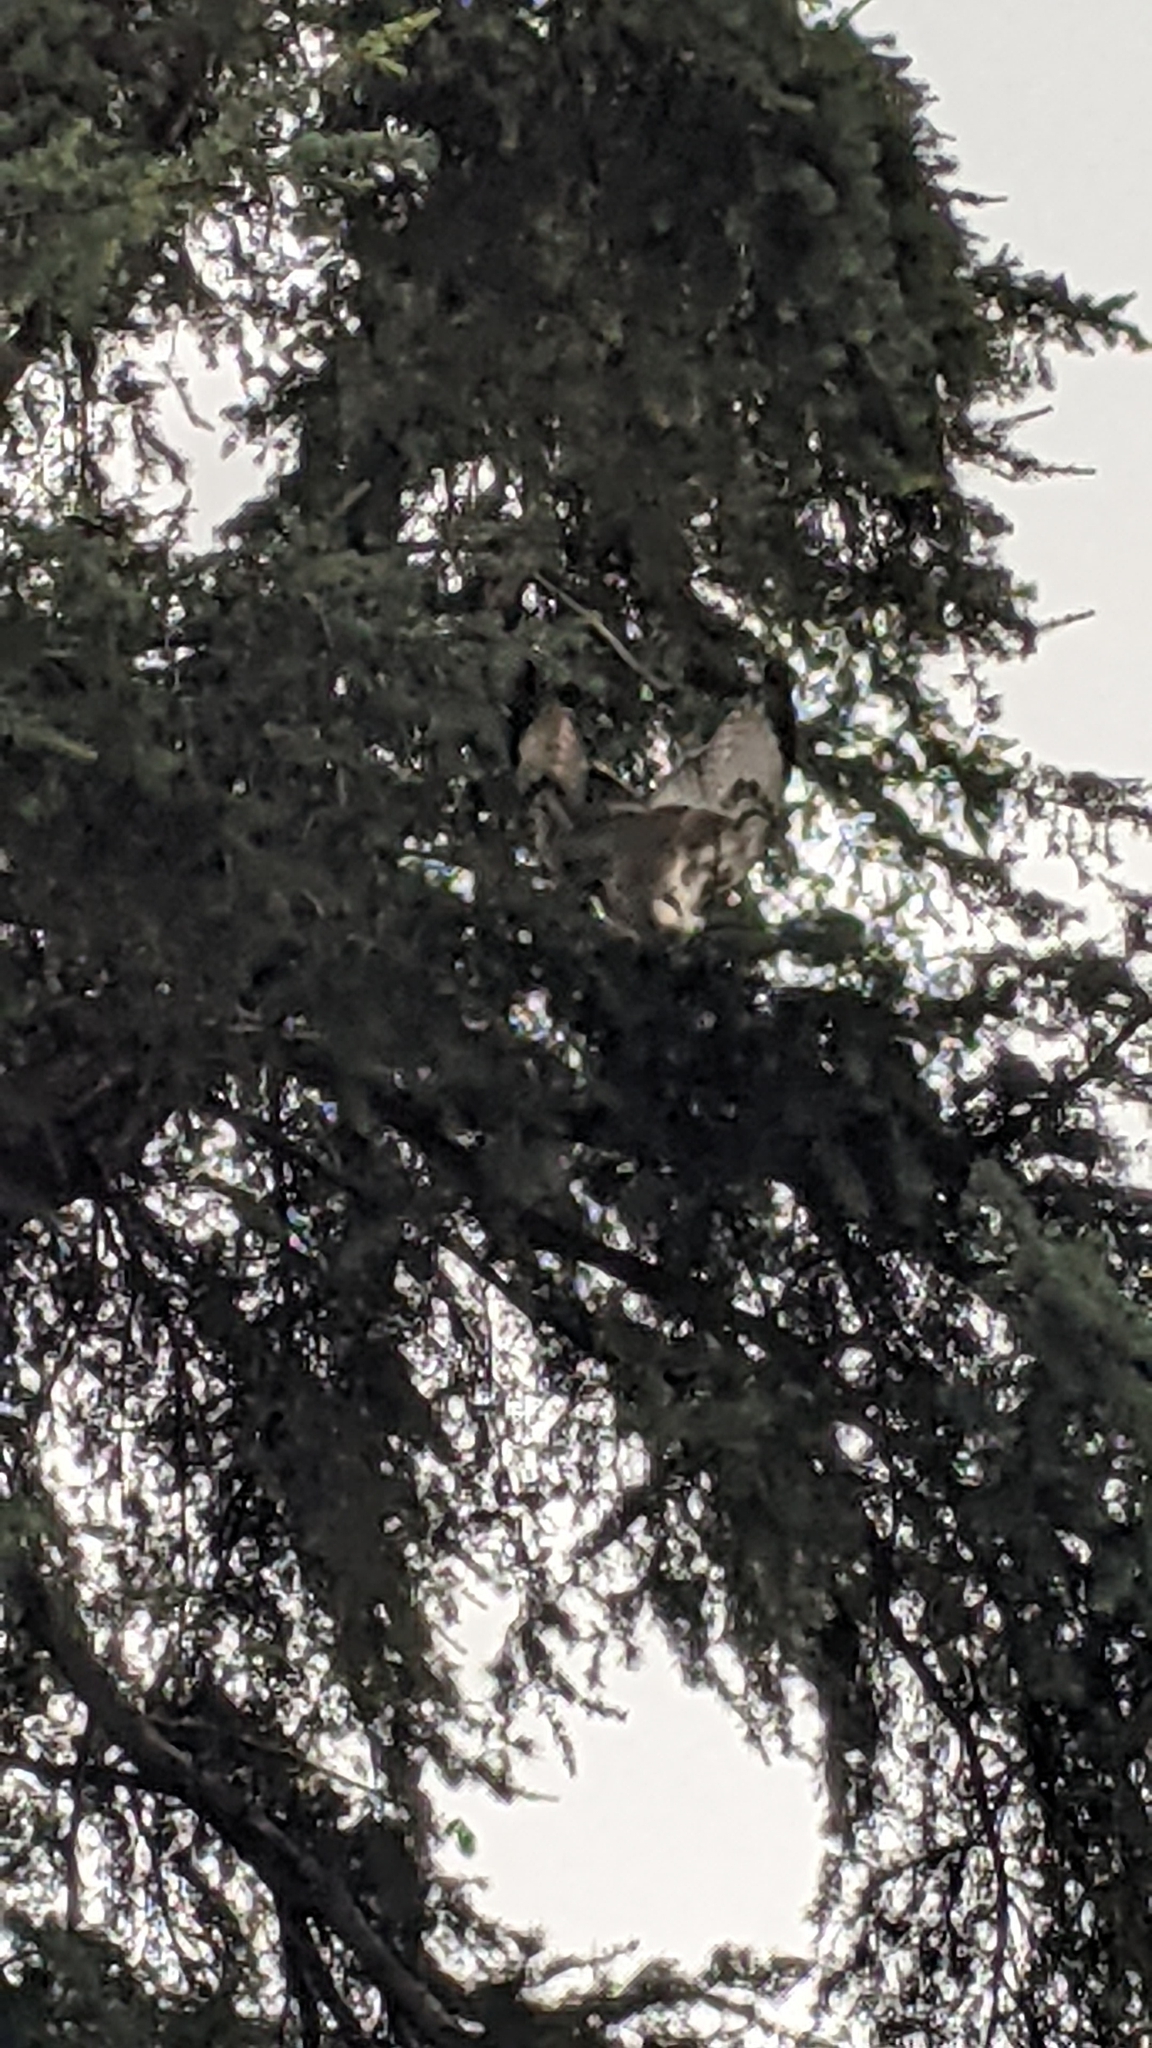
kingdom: Animalia
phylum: Chordata
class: Aves
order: Accipitriformes
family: Accipitridae
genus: Buteo
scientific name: Buteo jamaicensis
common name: Red-tailed hawk
